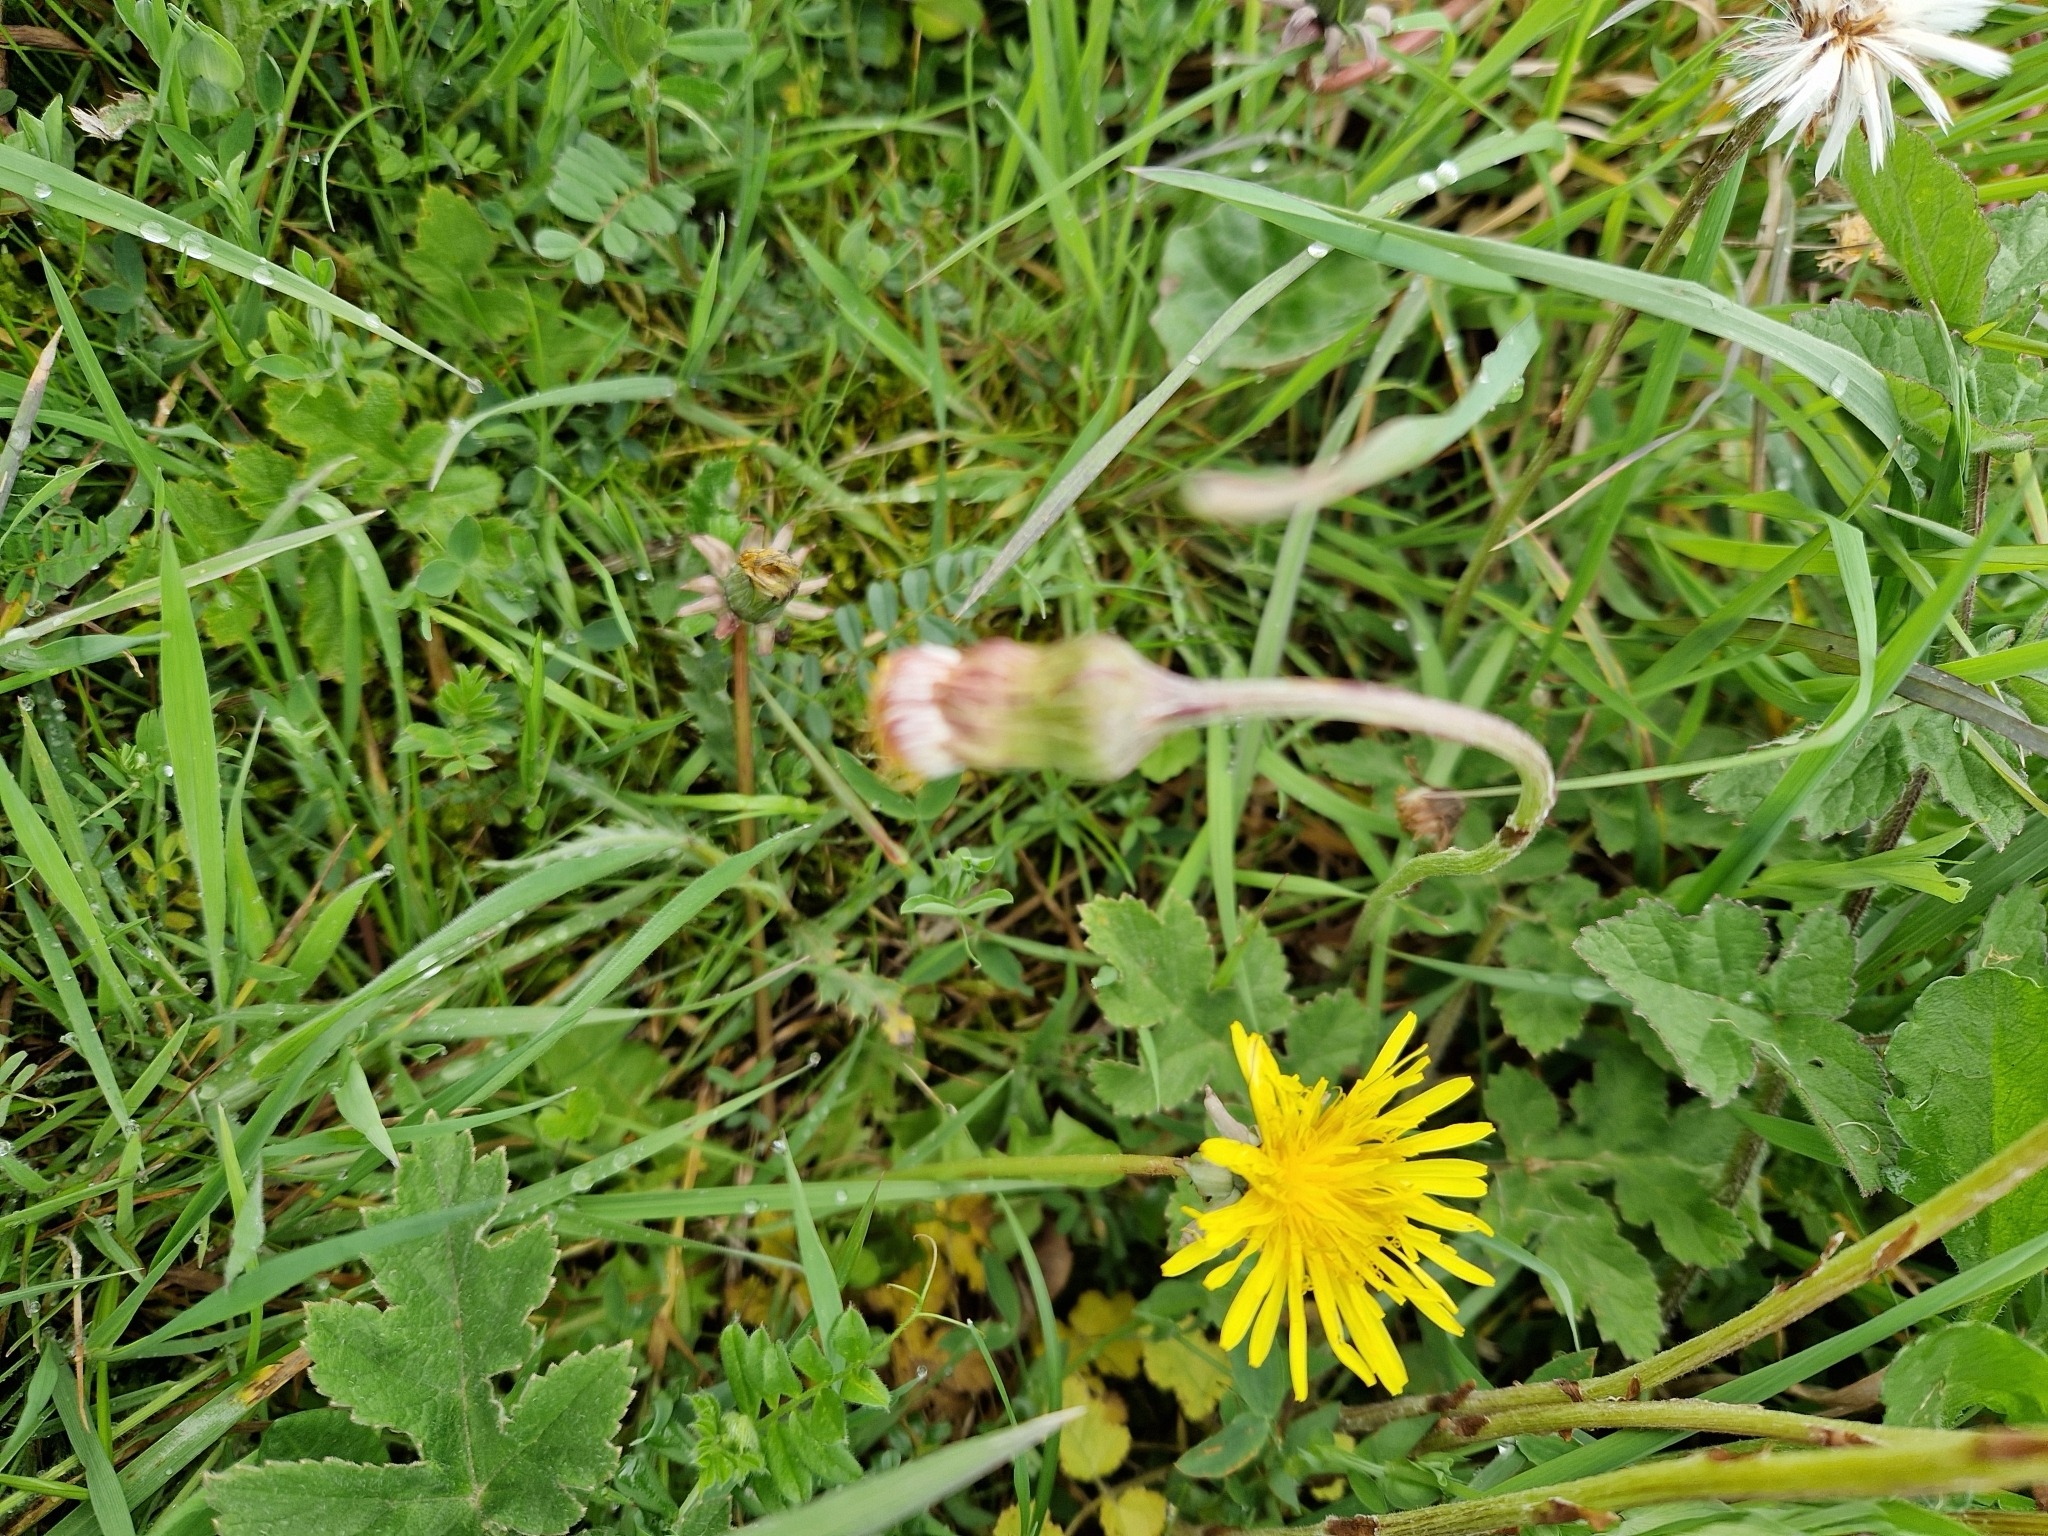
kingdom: Plantae
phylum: Tracheophyta
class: Magnoliopsida
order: Asterales
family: Asteraceae
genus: Tussilago
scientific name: Tussilago farfara
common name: Coltsfoot
